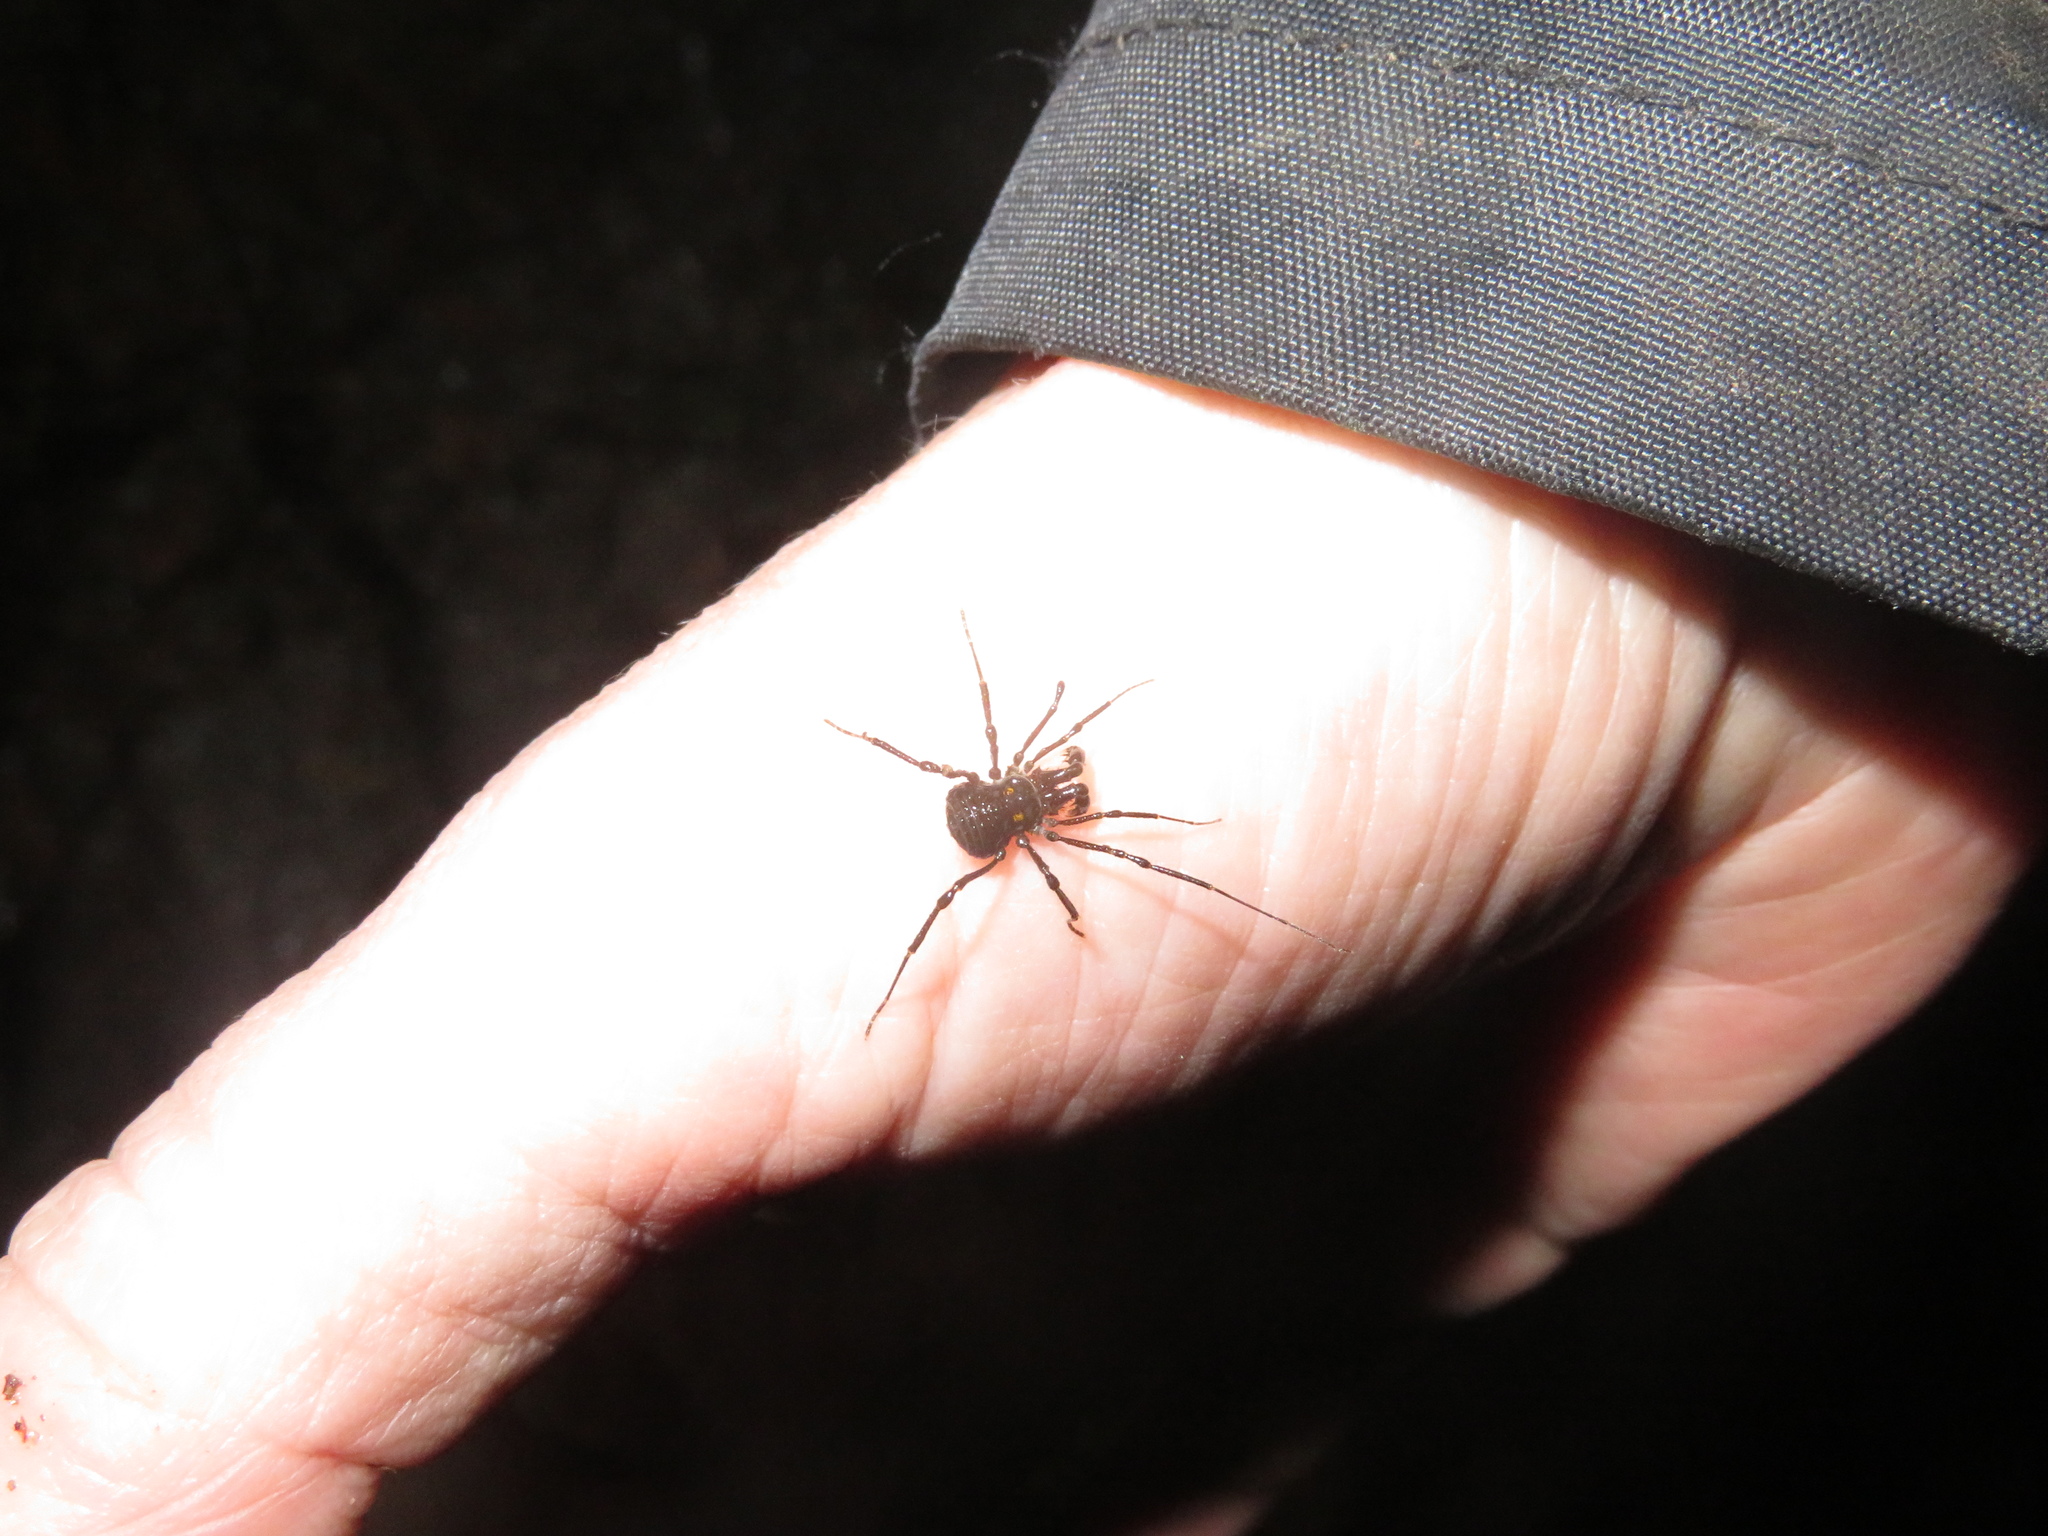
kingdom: Animalia
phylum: Arthropoda
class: Arachnida
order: Opiliones
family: Triaenonychidae
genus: Hendea
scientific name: Hendea myersi
